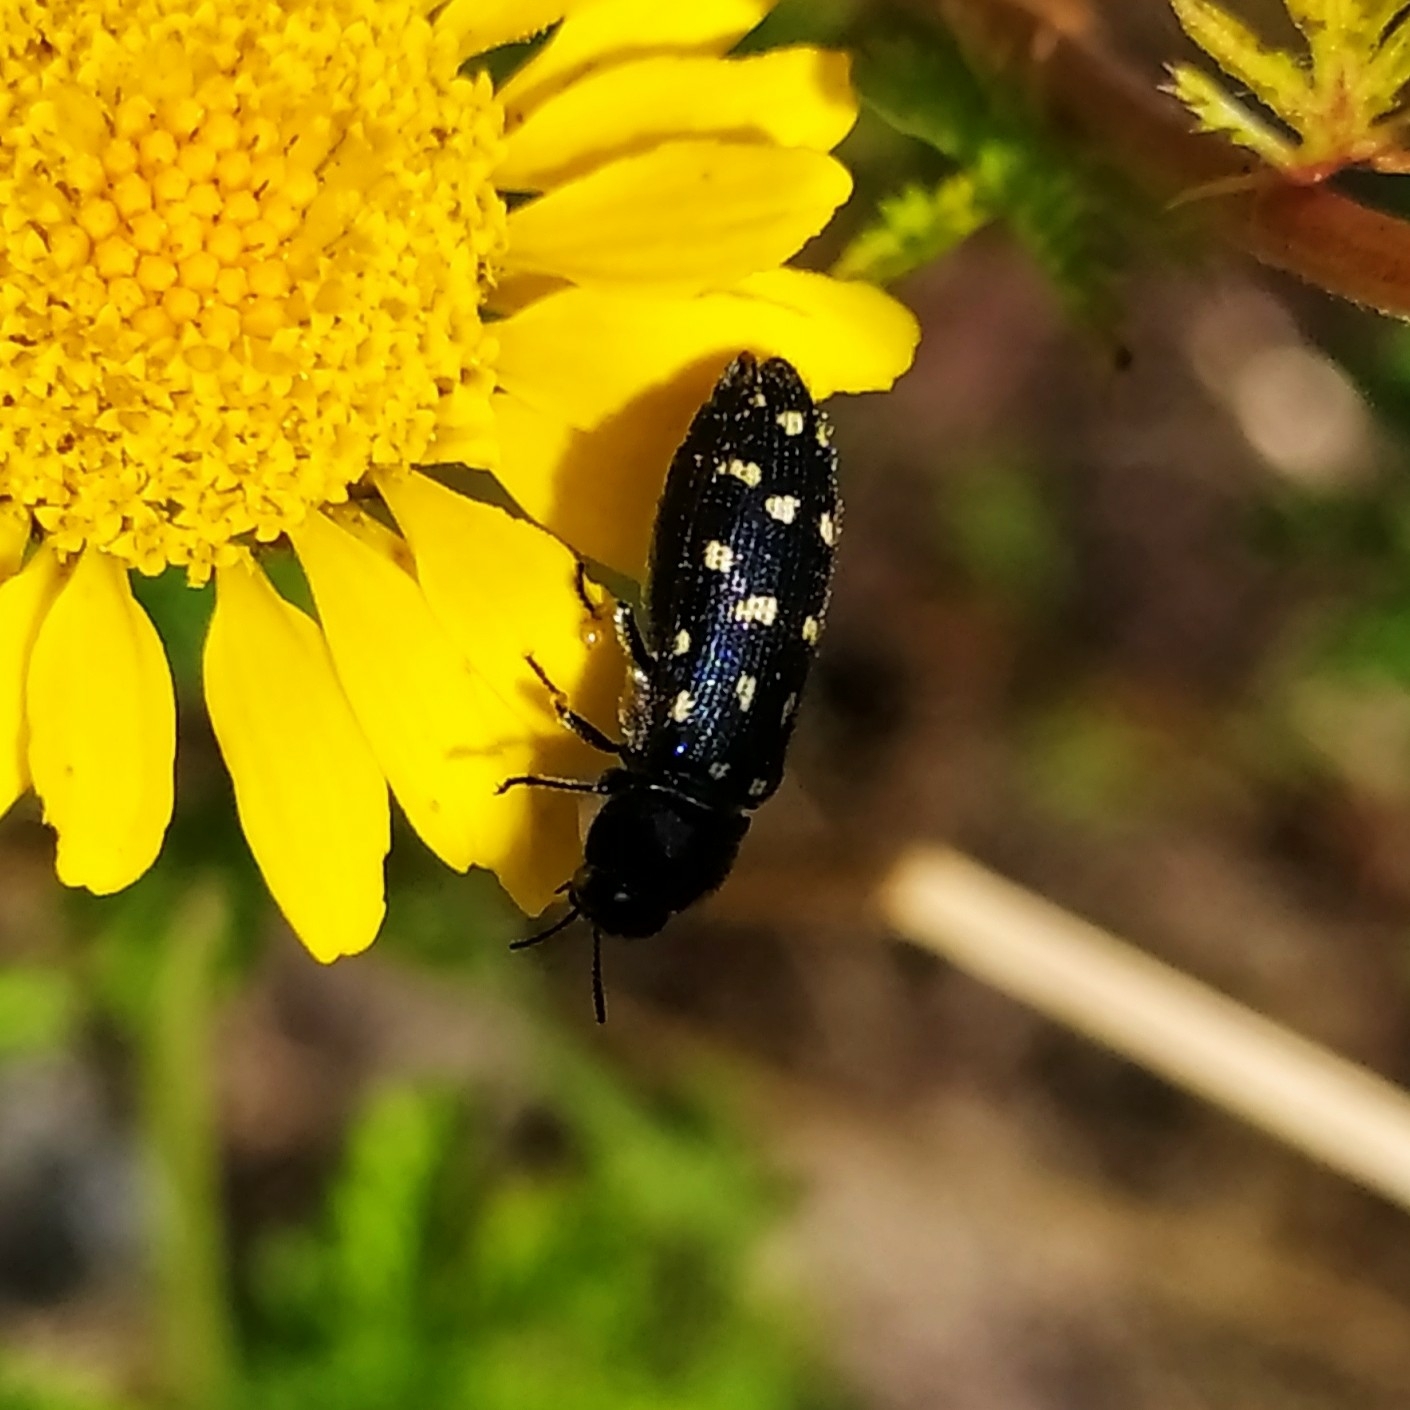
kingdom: Animalia
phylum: Arthropoda
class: Insecta
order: Coleoptera
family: Buprestidae
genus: Acmaeodera
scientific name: Acmaeodera degener
